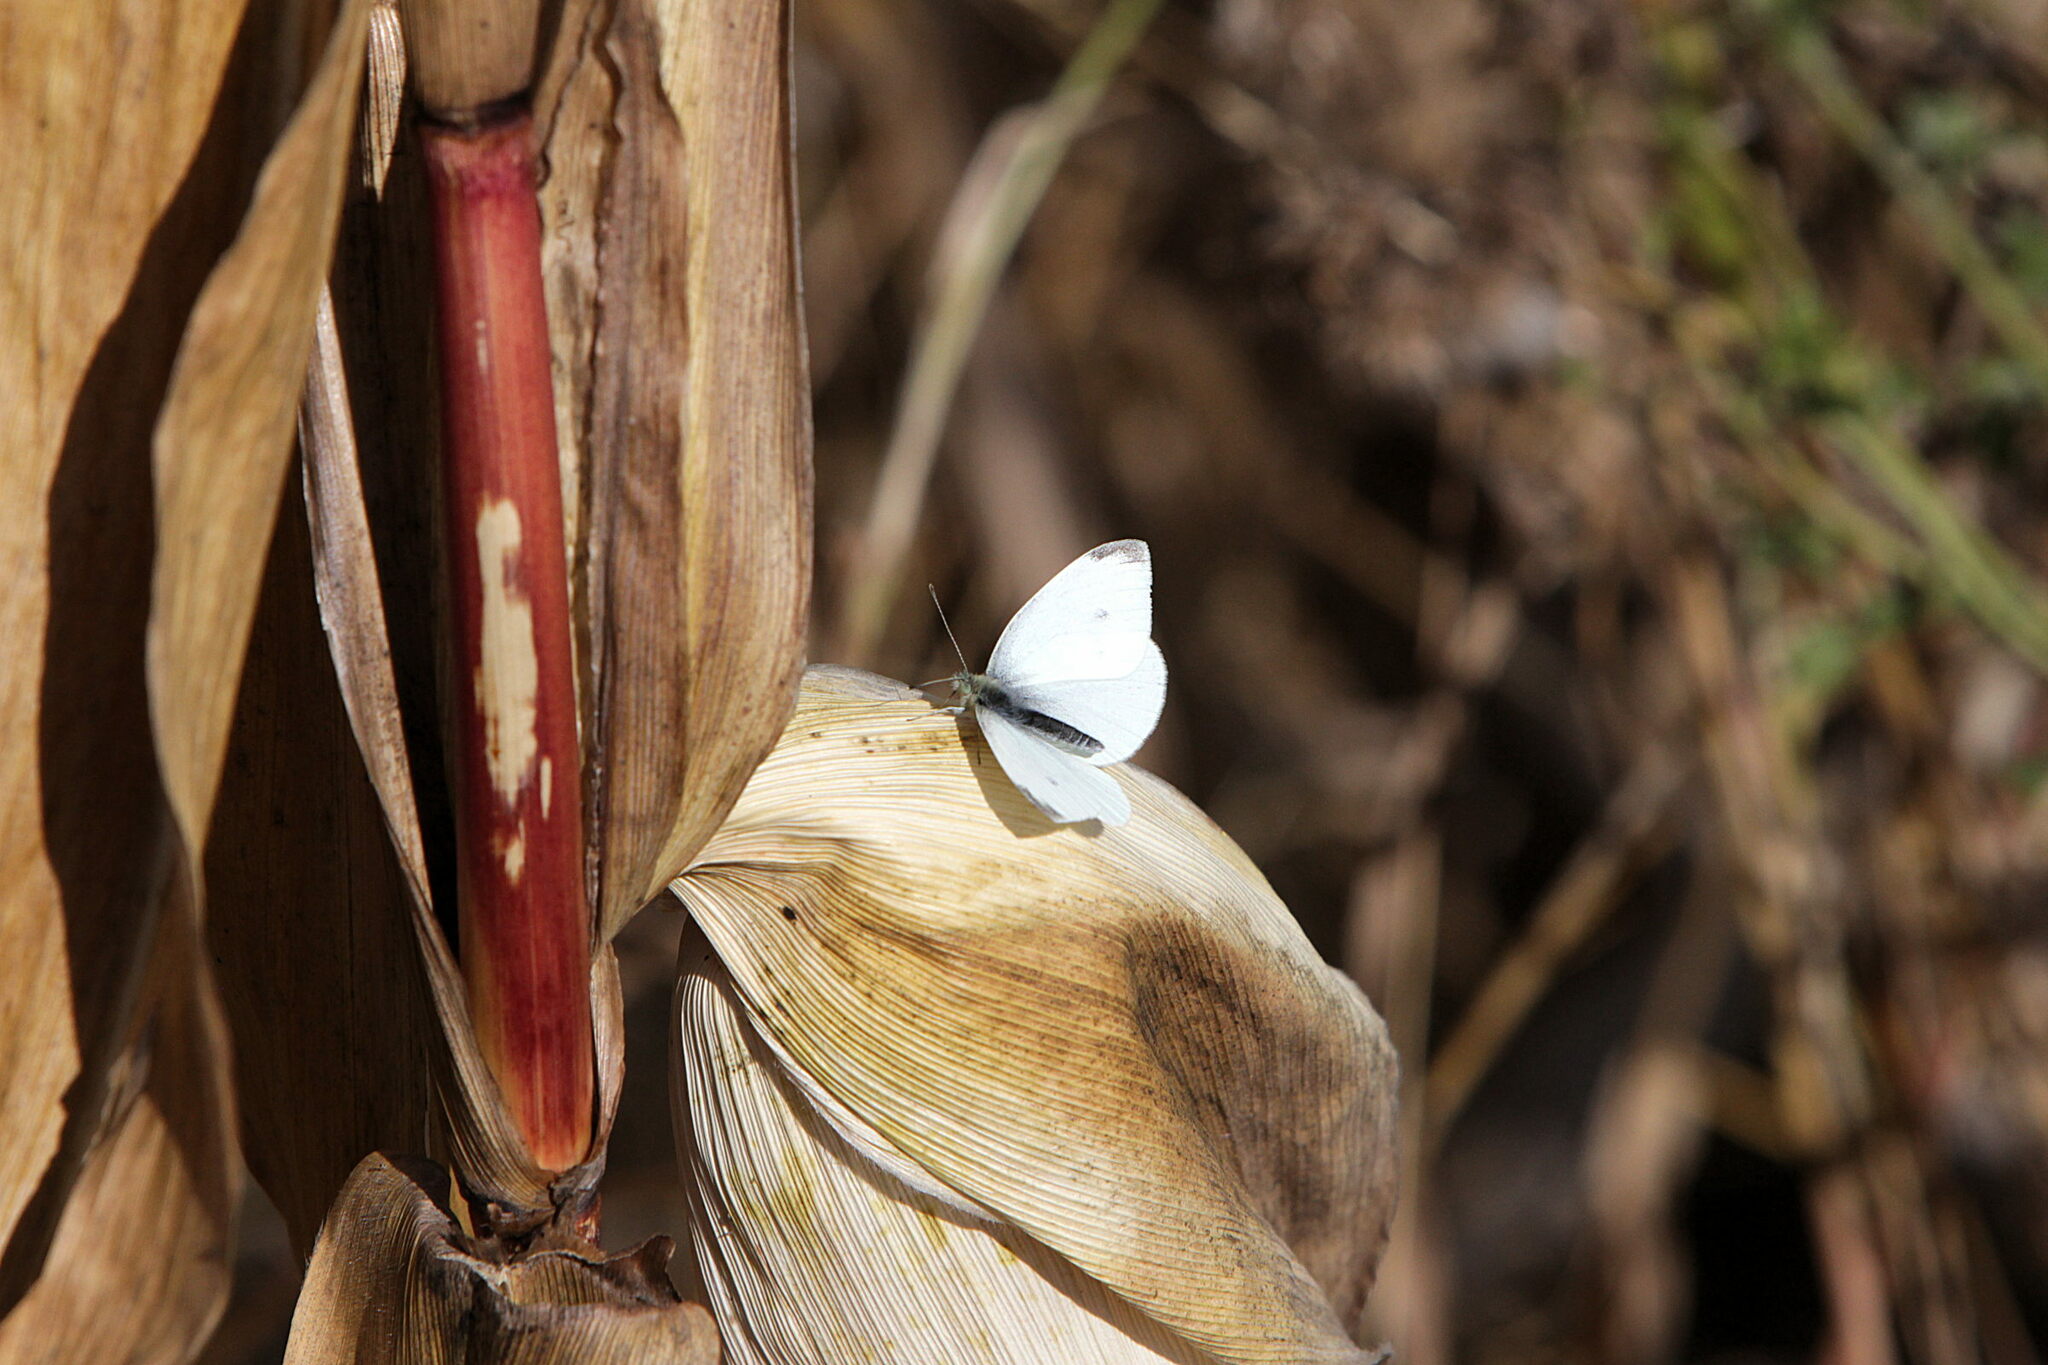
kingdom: Animalia
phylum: Arthropoda
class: Insecta
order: Lepidoptera
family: Pieridae
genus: Pieris
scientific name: Pieris rapae
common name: Small white
